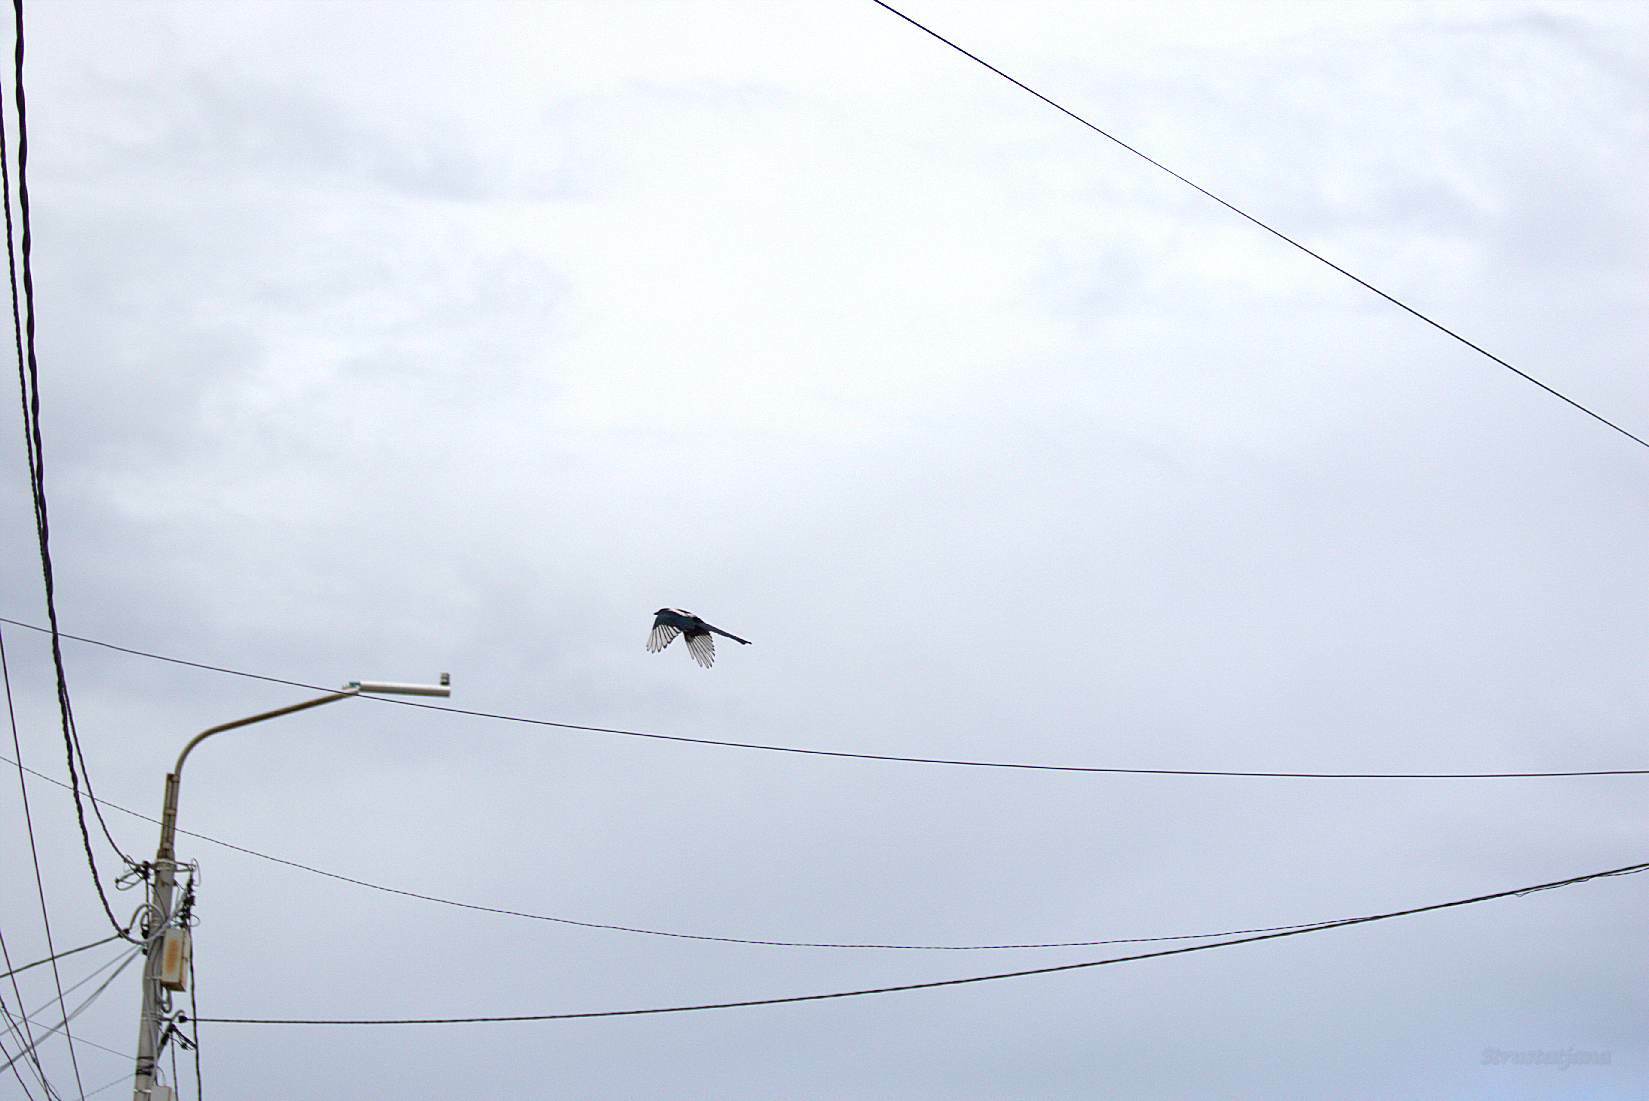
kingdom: Animalia
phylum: Chordata
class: Aves
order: Passeriformes
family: Corvidae
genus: Pica
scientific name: Pica pica
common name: Eurasian magpie
